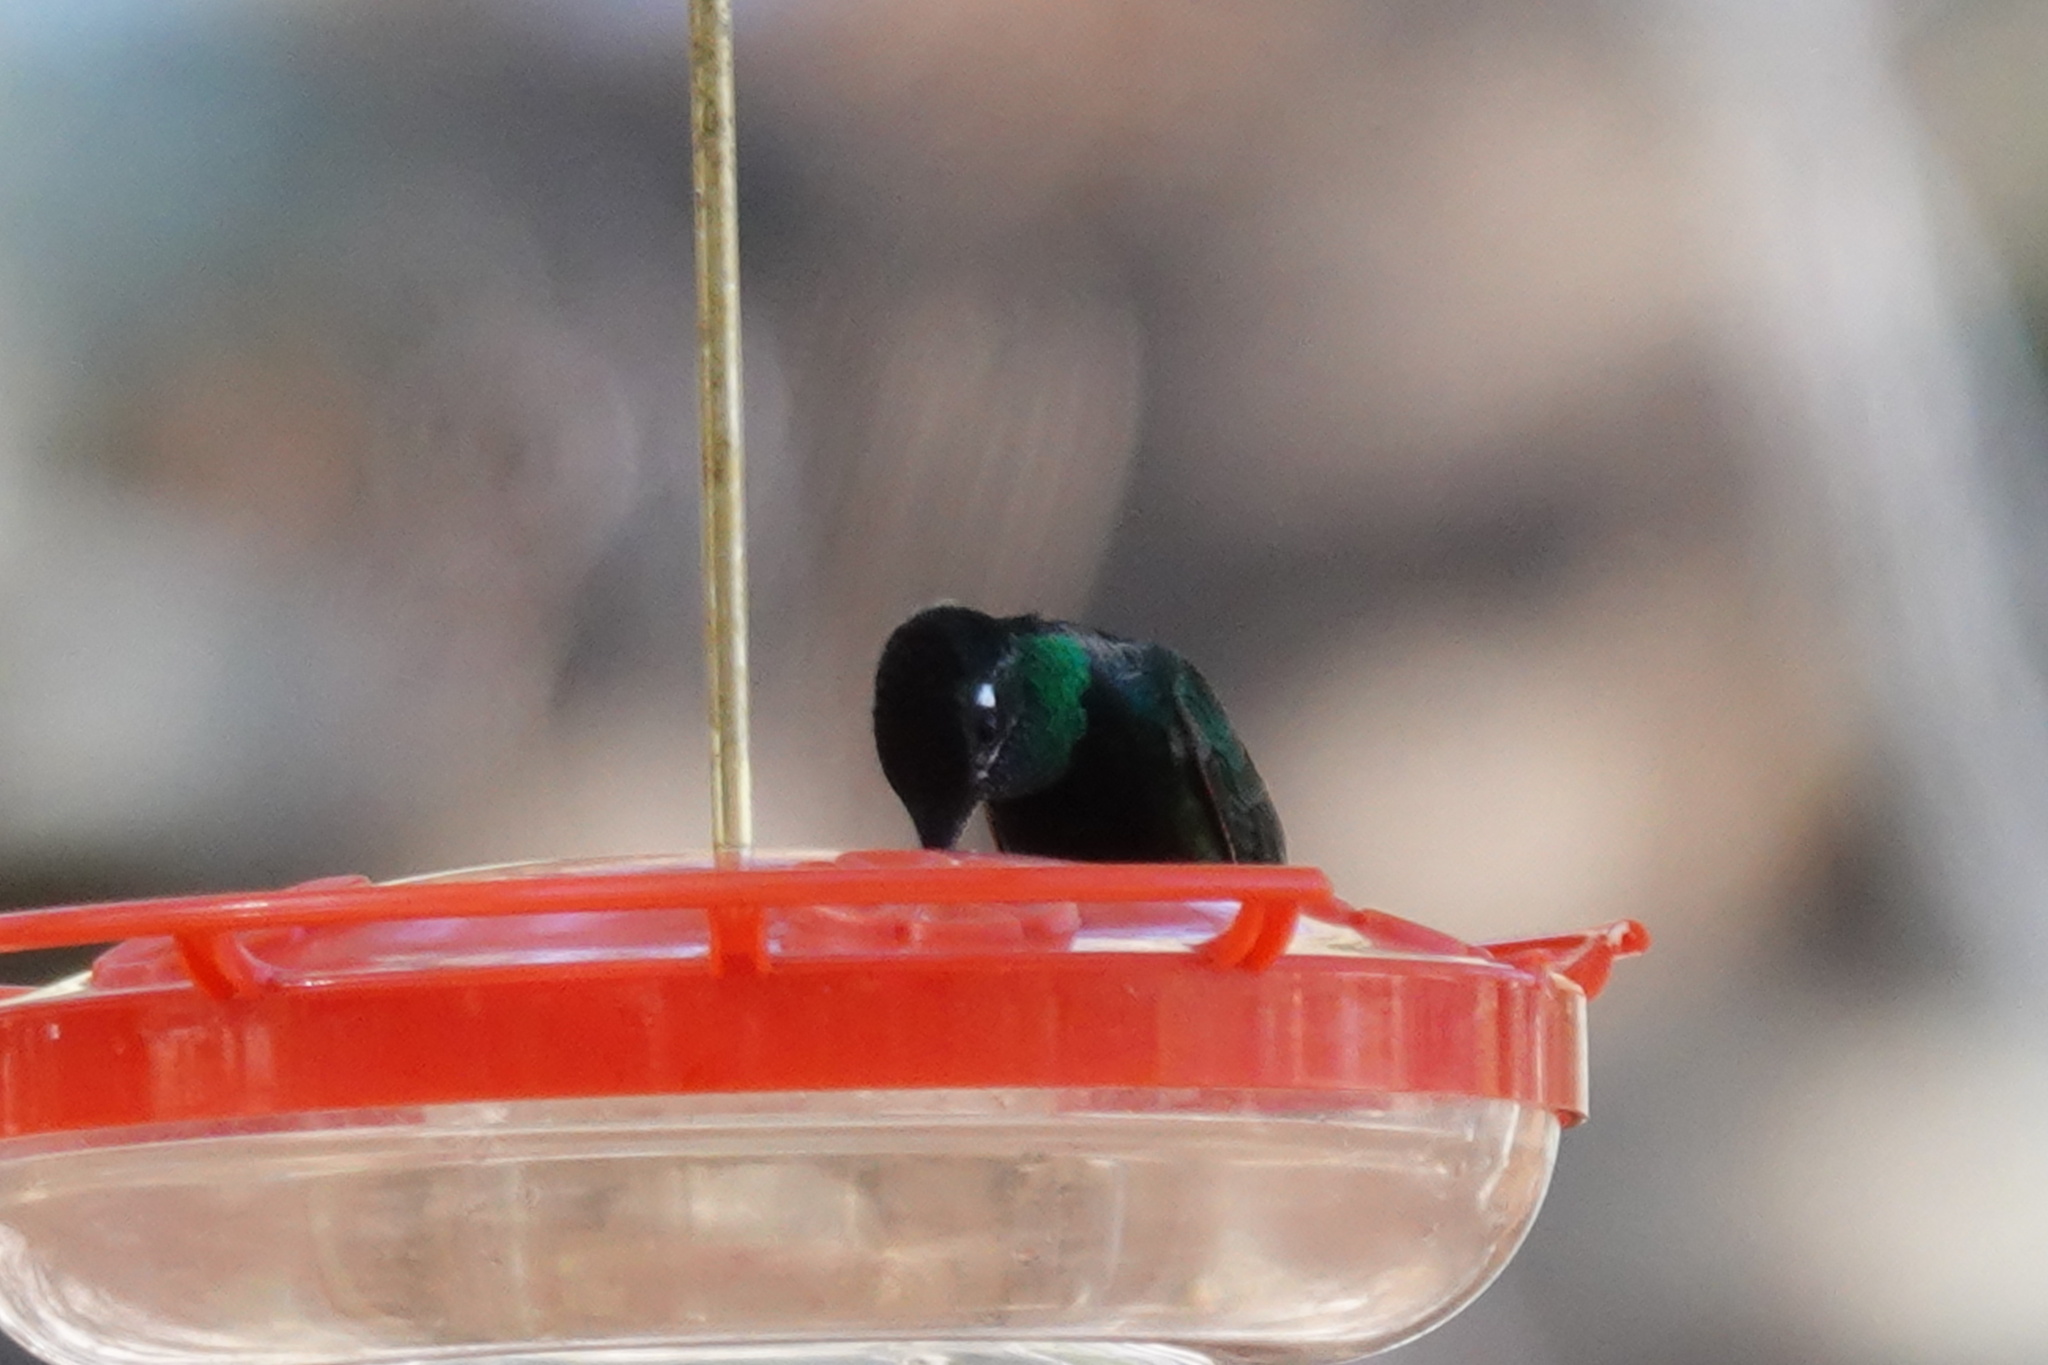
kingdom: Animalia
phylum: Chordata
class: Aves
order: Apodiformes
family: Trochilidae
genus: Eugenes
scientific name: Eugenes fulgens
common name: Magnificent hummingbird
